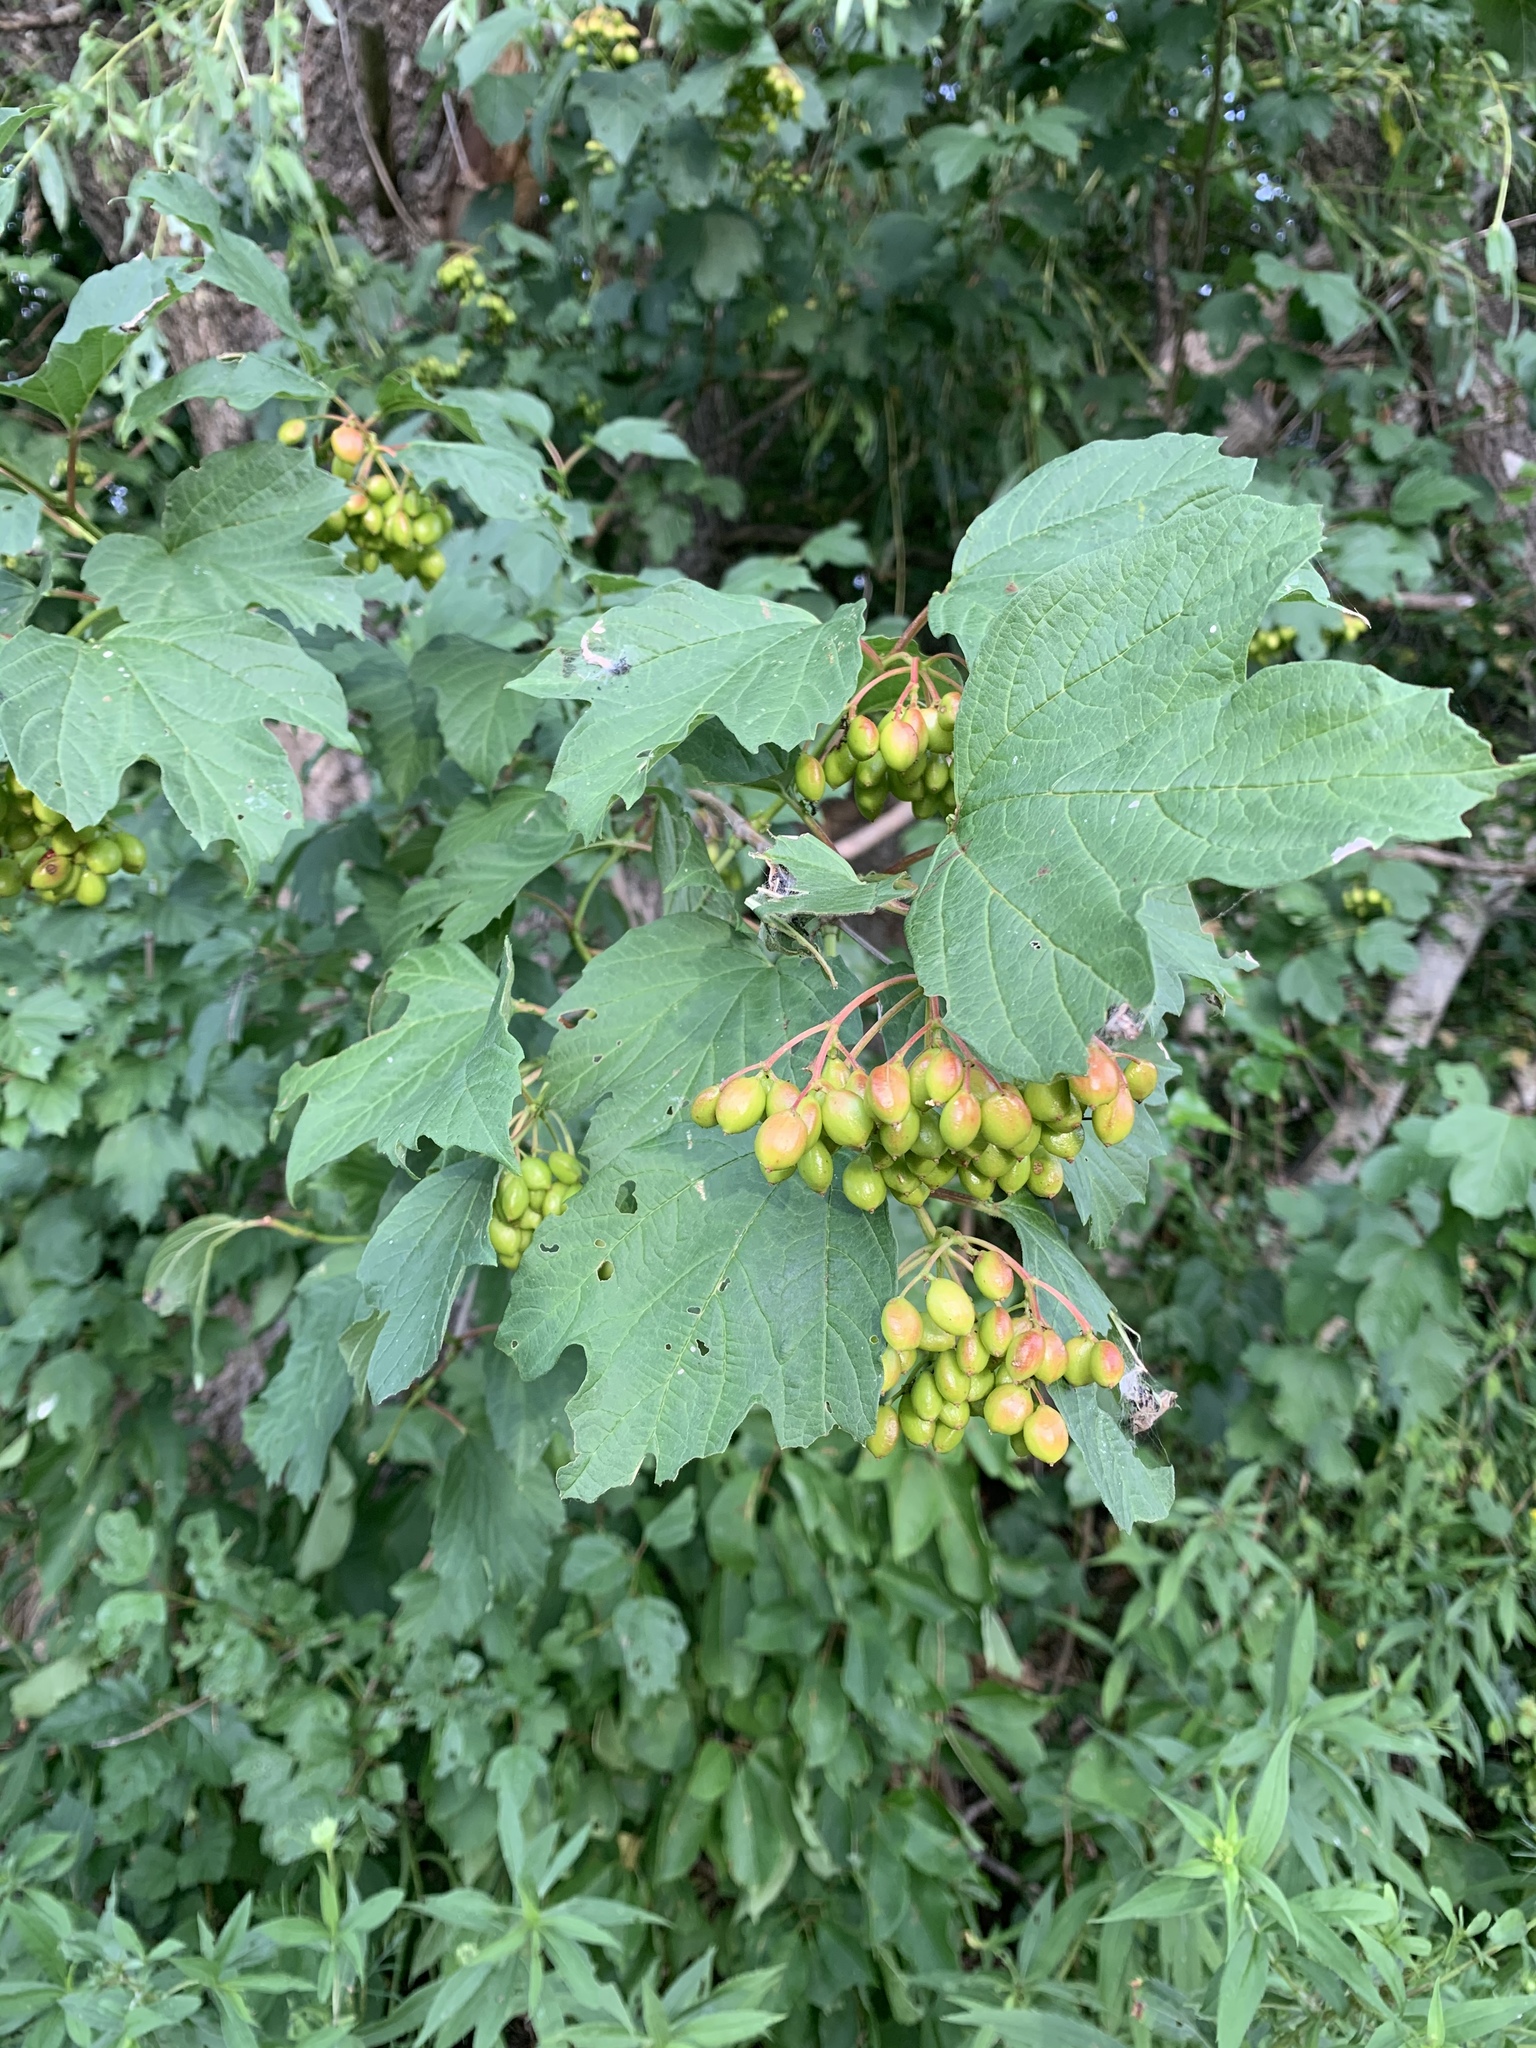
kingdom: Plantae
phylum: Tracheophyta
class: Magnoliopsida
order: Dipsacales
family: Viburnaceae
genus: Viburnum
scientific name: Viburnum opulus
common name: Guelder-rose
